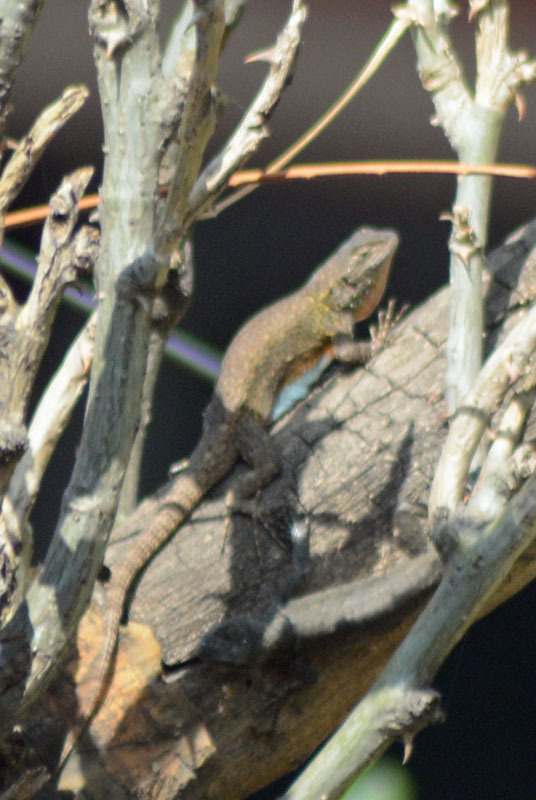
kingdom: Animalia
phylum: Chordata
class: Squamata
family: Phrynosomatidae
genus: Sceloporus
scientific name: Sceloporus grammicus
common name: Mesquite lizard
